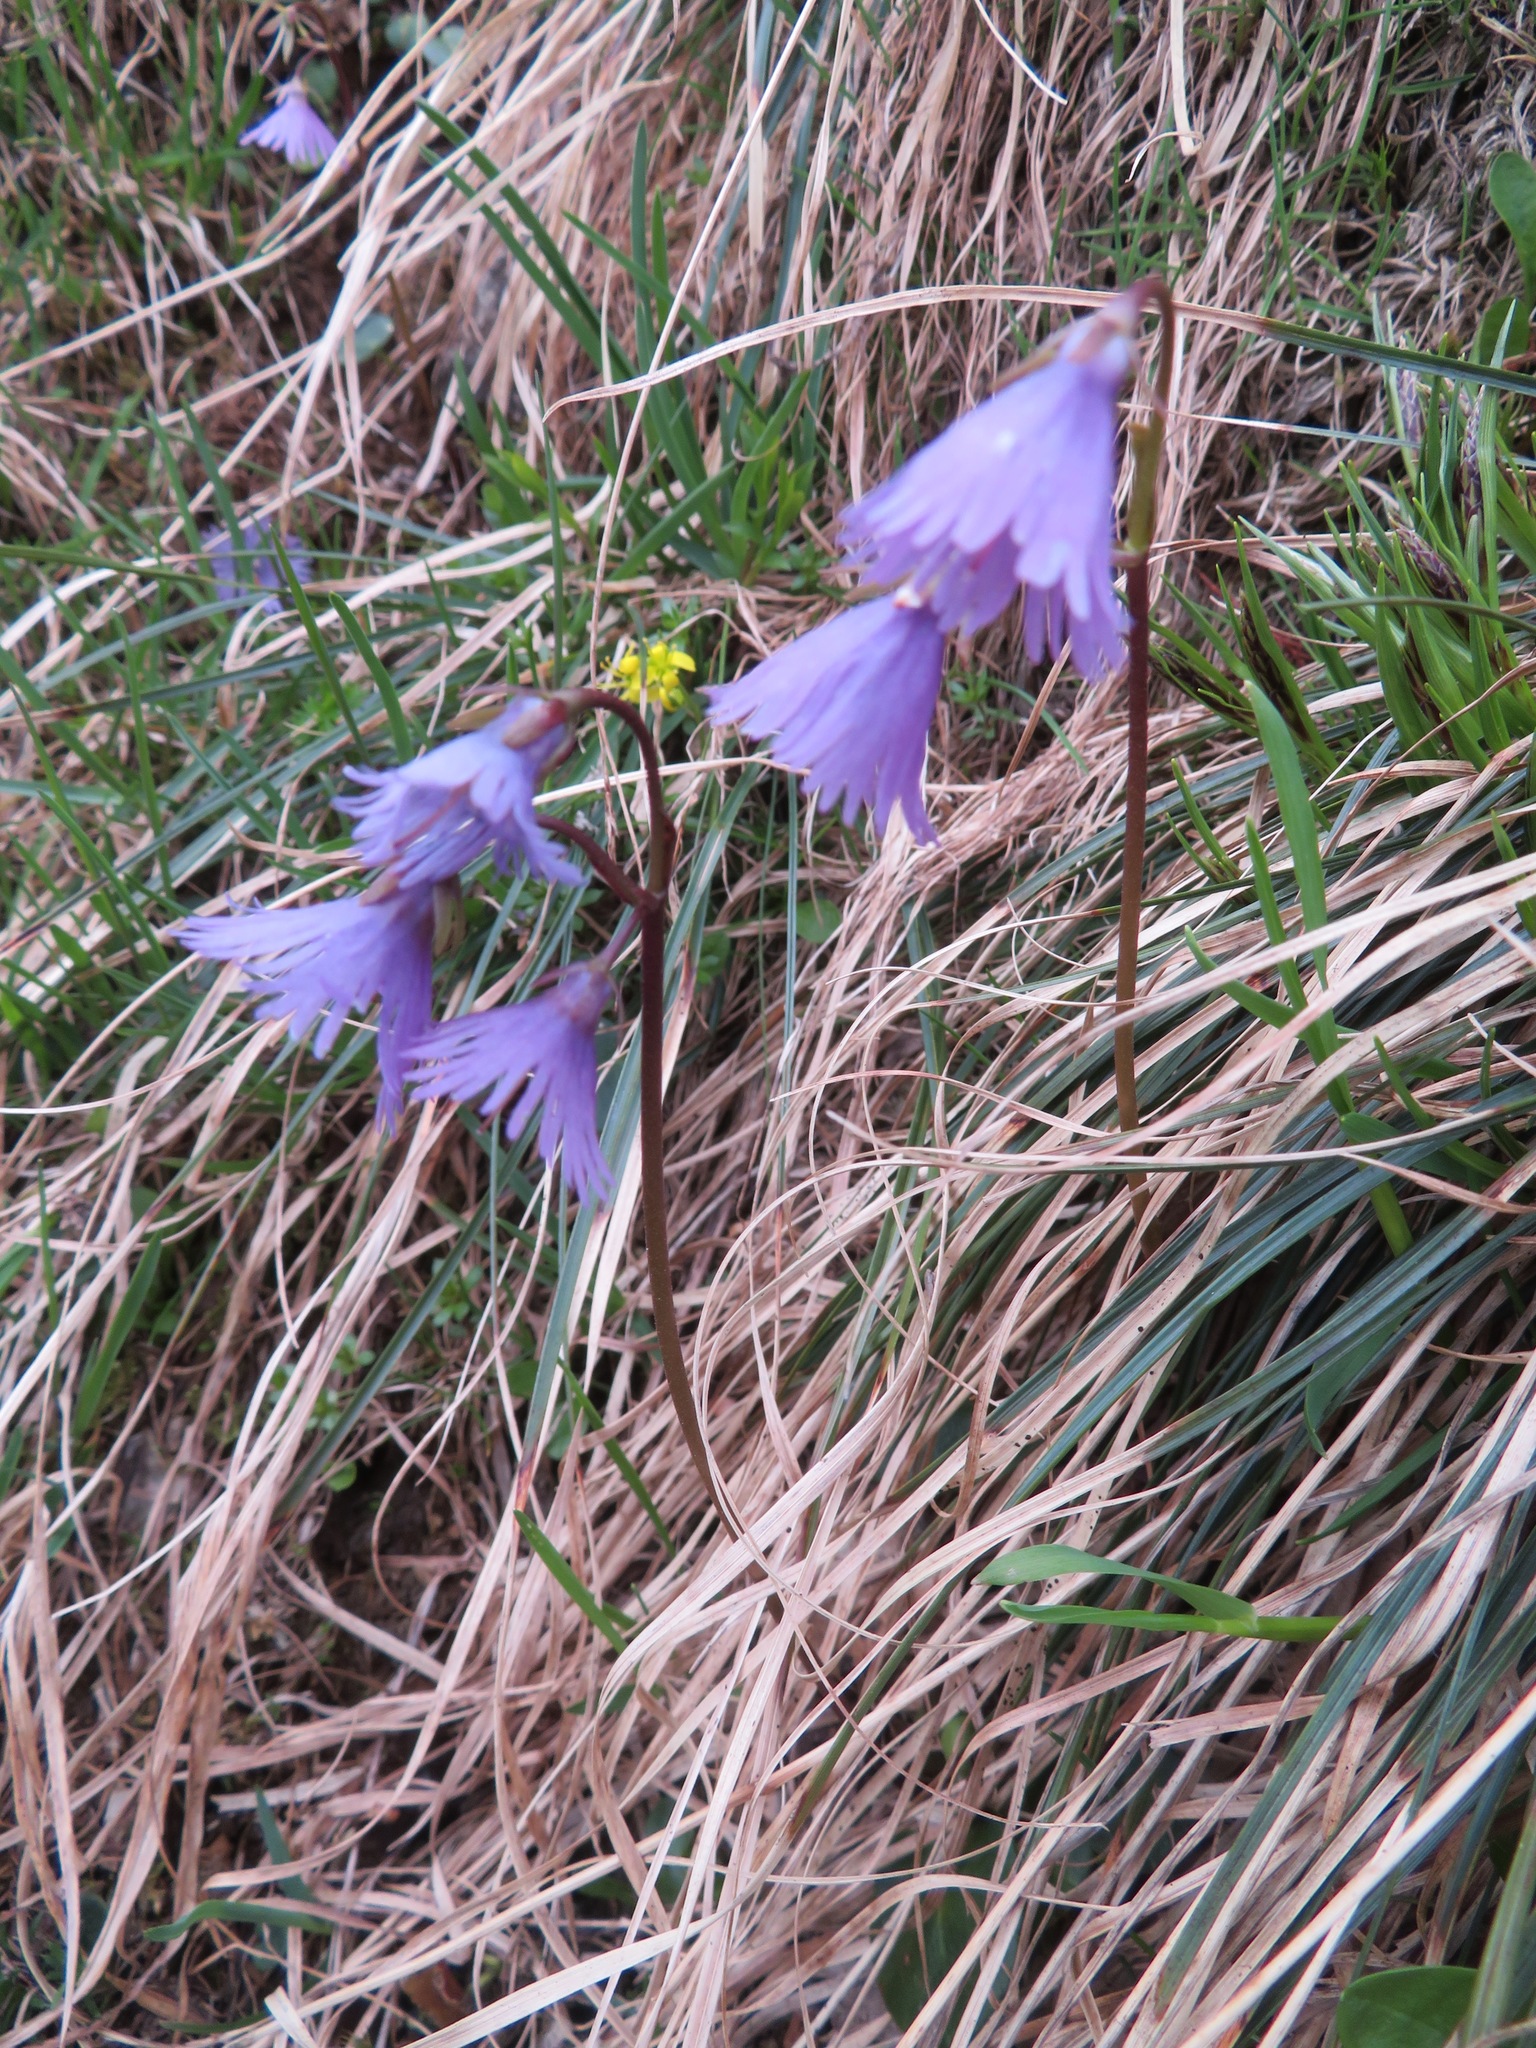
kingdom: Plantae
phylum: Tracheophyta
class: Magnoliopsida
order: Ericales
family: Primulaceae
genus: Soldanella
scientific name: Soldanella alpina
